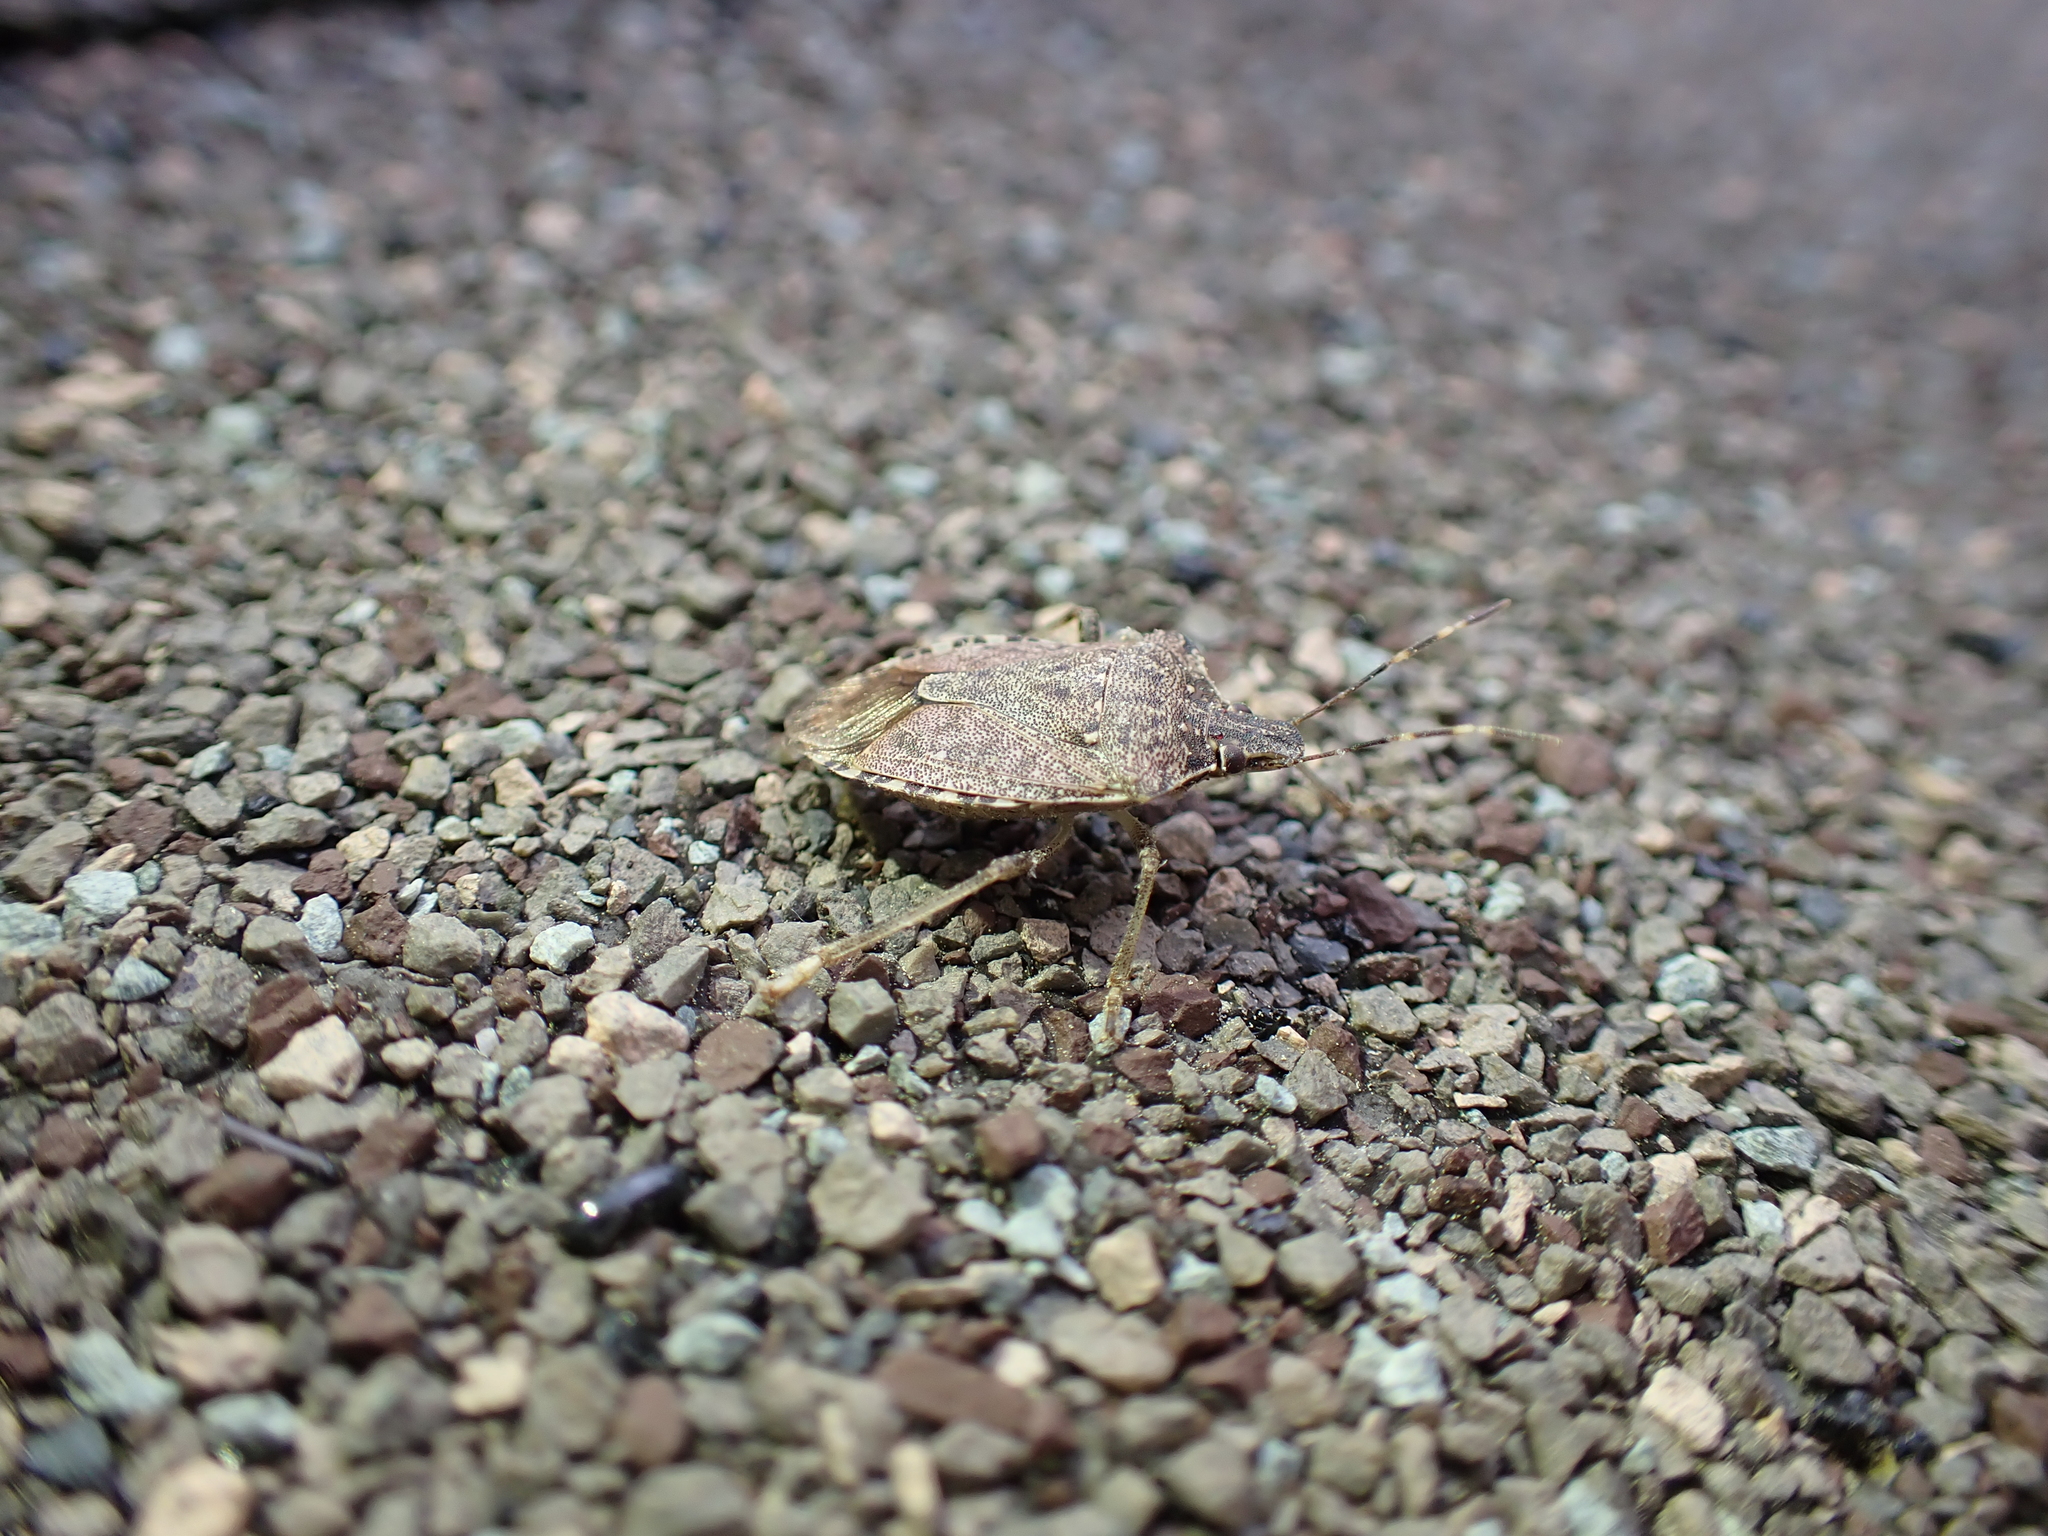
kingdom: Animalia
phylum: Arthropoda
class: Insecta
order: Hemiptera
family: Pentatomidae
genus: Halyomorpha
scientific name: Halyomorpha halys
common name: Brown marmorated stink bug
